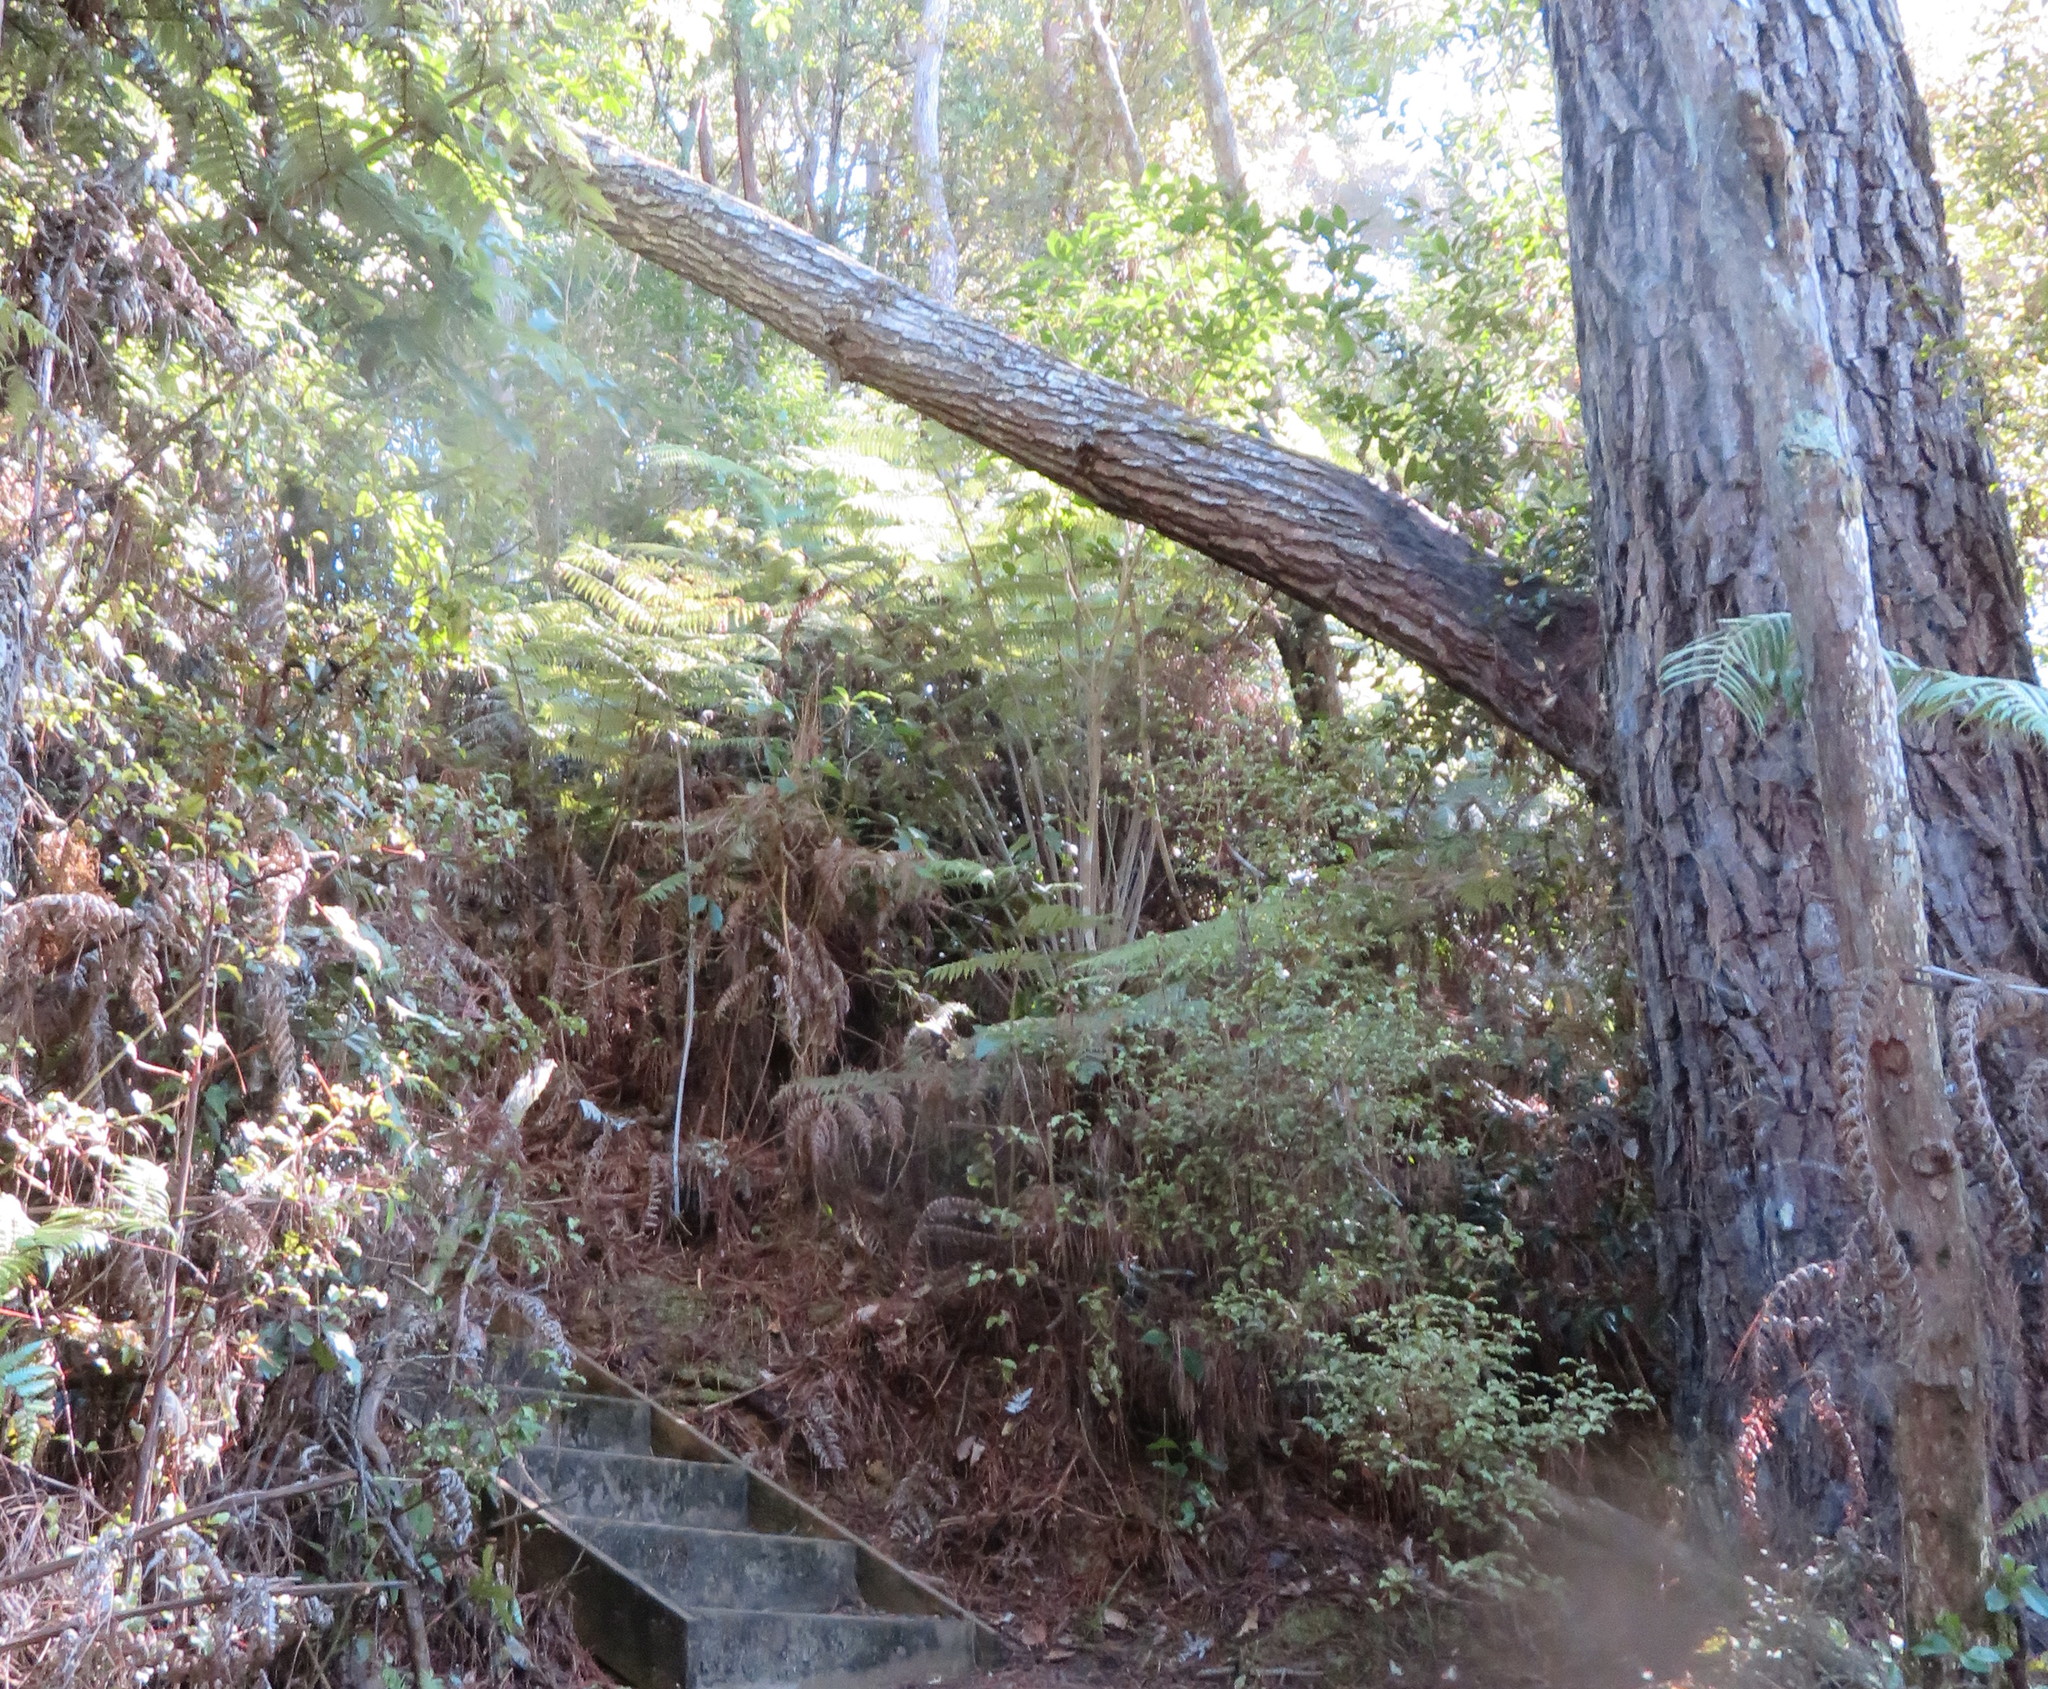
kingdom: Plantae
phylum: Tracheophyta
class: Magnoliopsida
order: Malpighiales
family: Violaceae
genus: Melicytus
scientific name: Melicytus ramiflorus
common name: Mahoe
